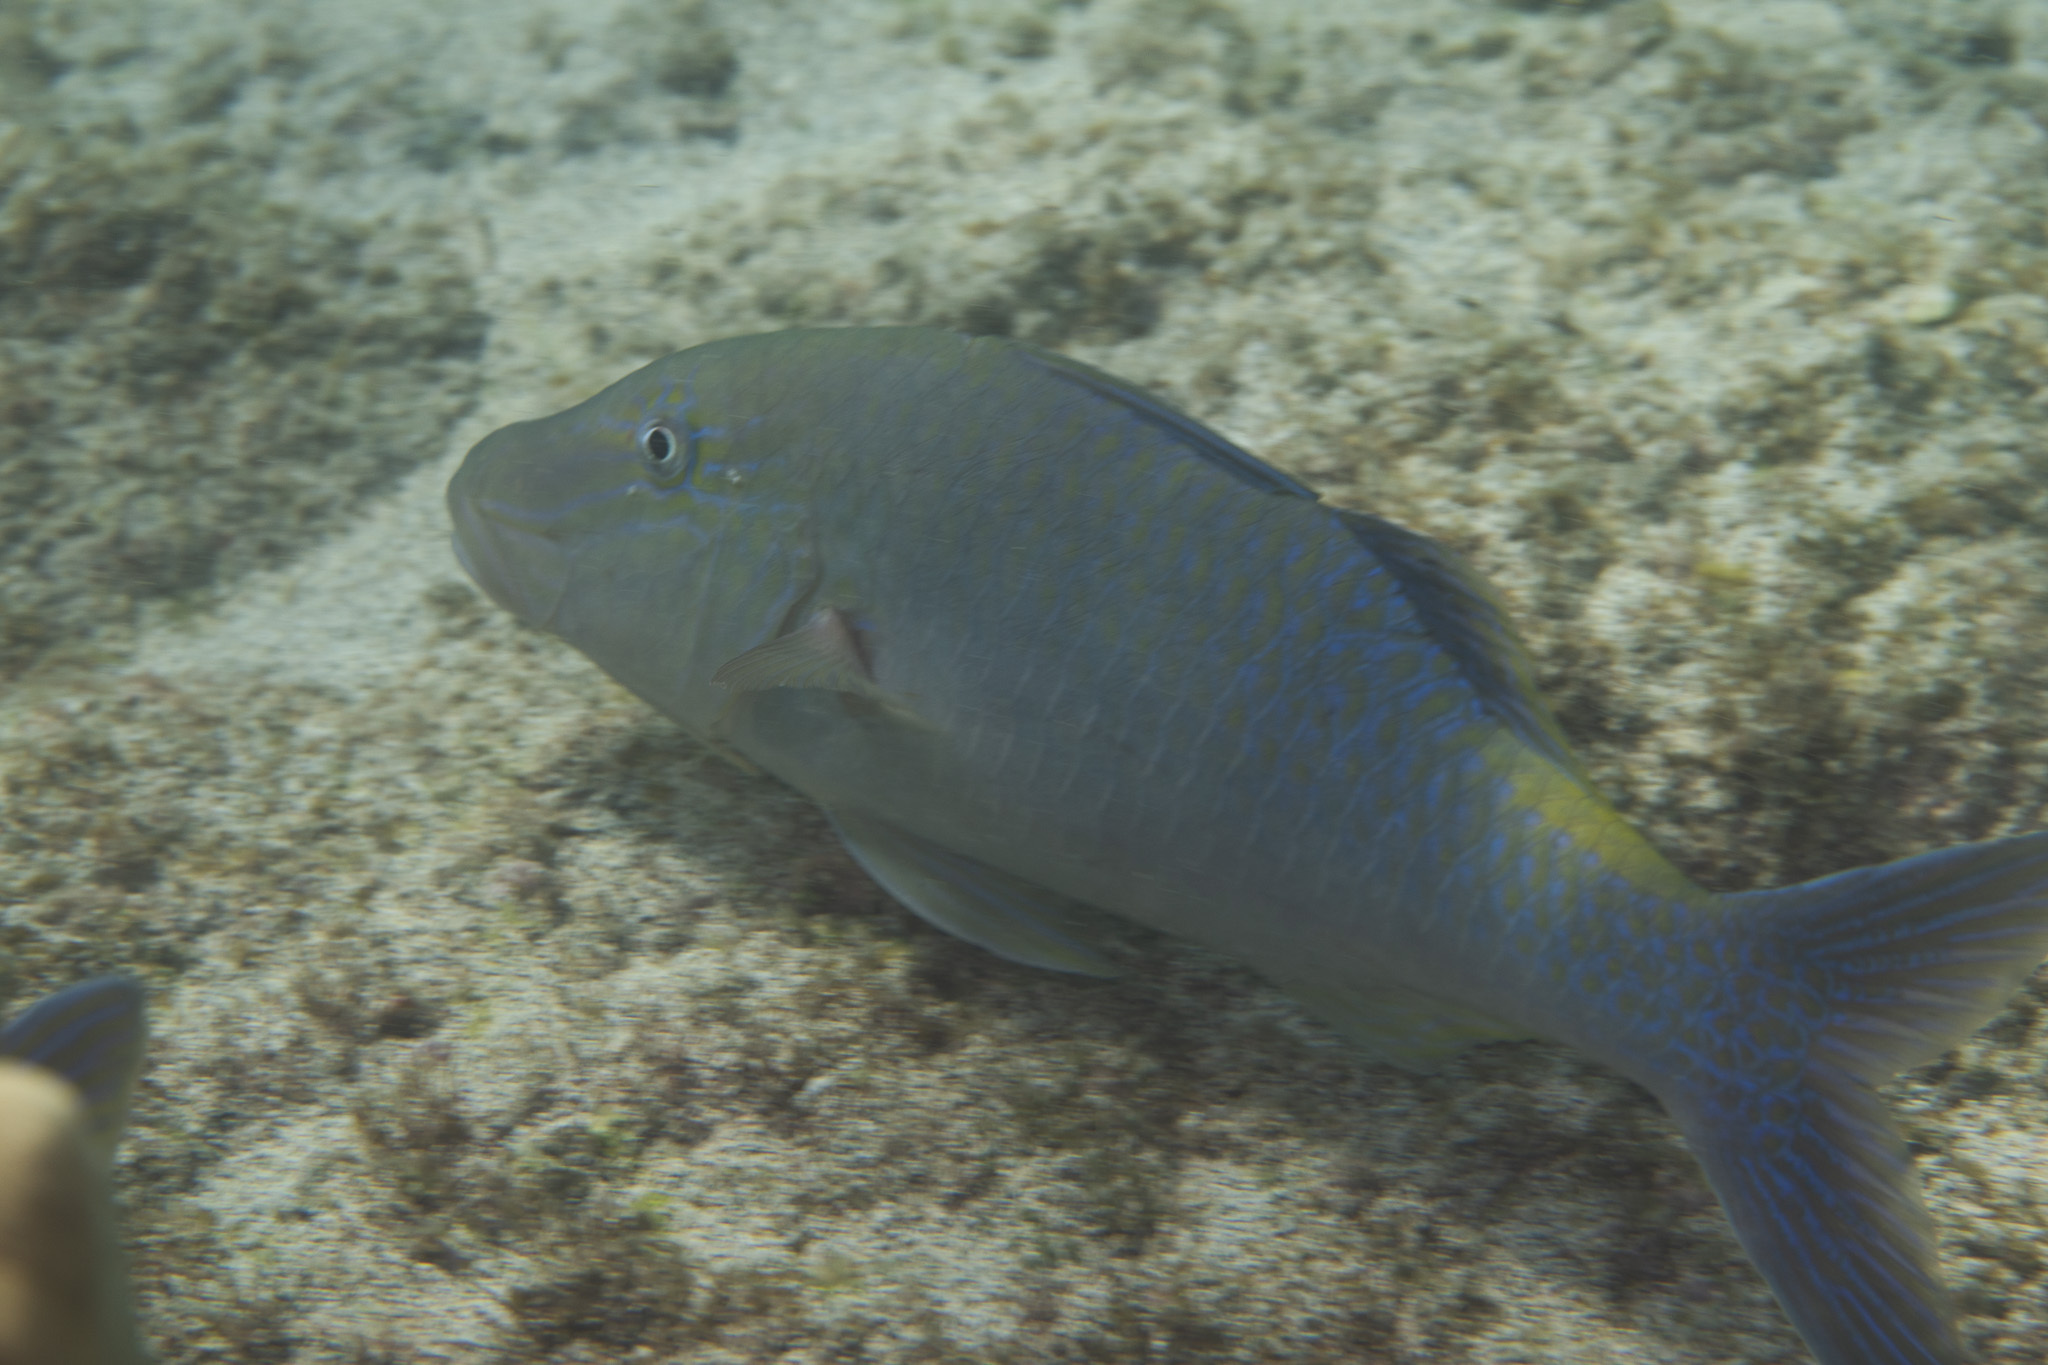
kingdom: Animalia
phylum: Chordata
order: Perciformes
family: Mullidae
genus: Parupeneus
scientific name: Parupeneus cyclostomus
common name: Goldsaddle goatfish
